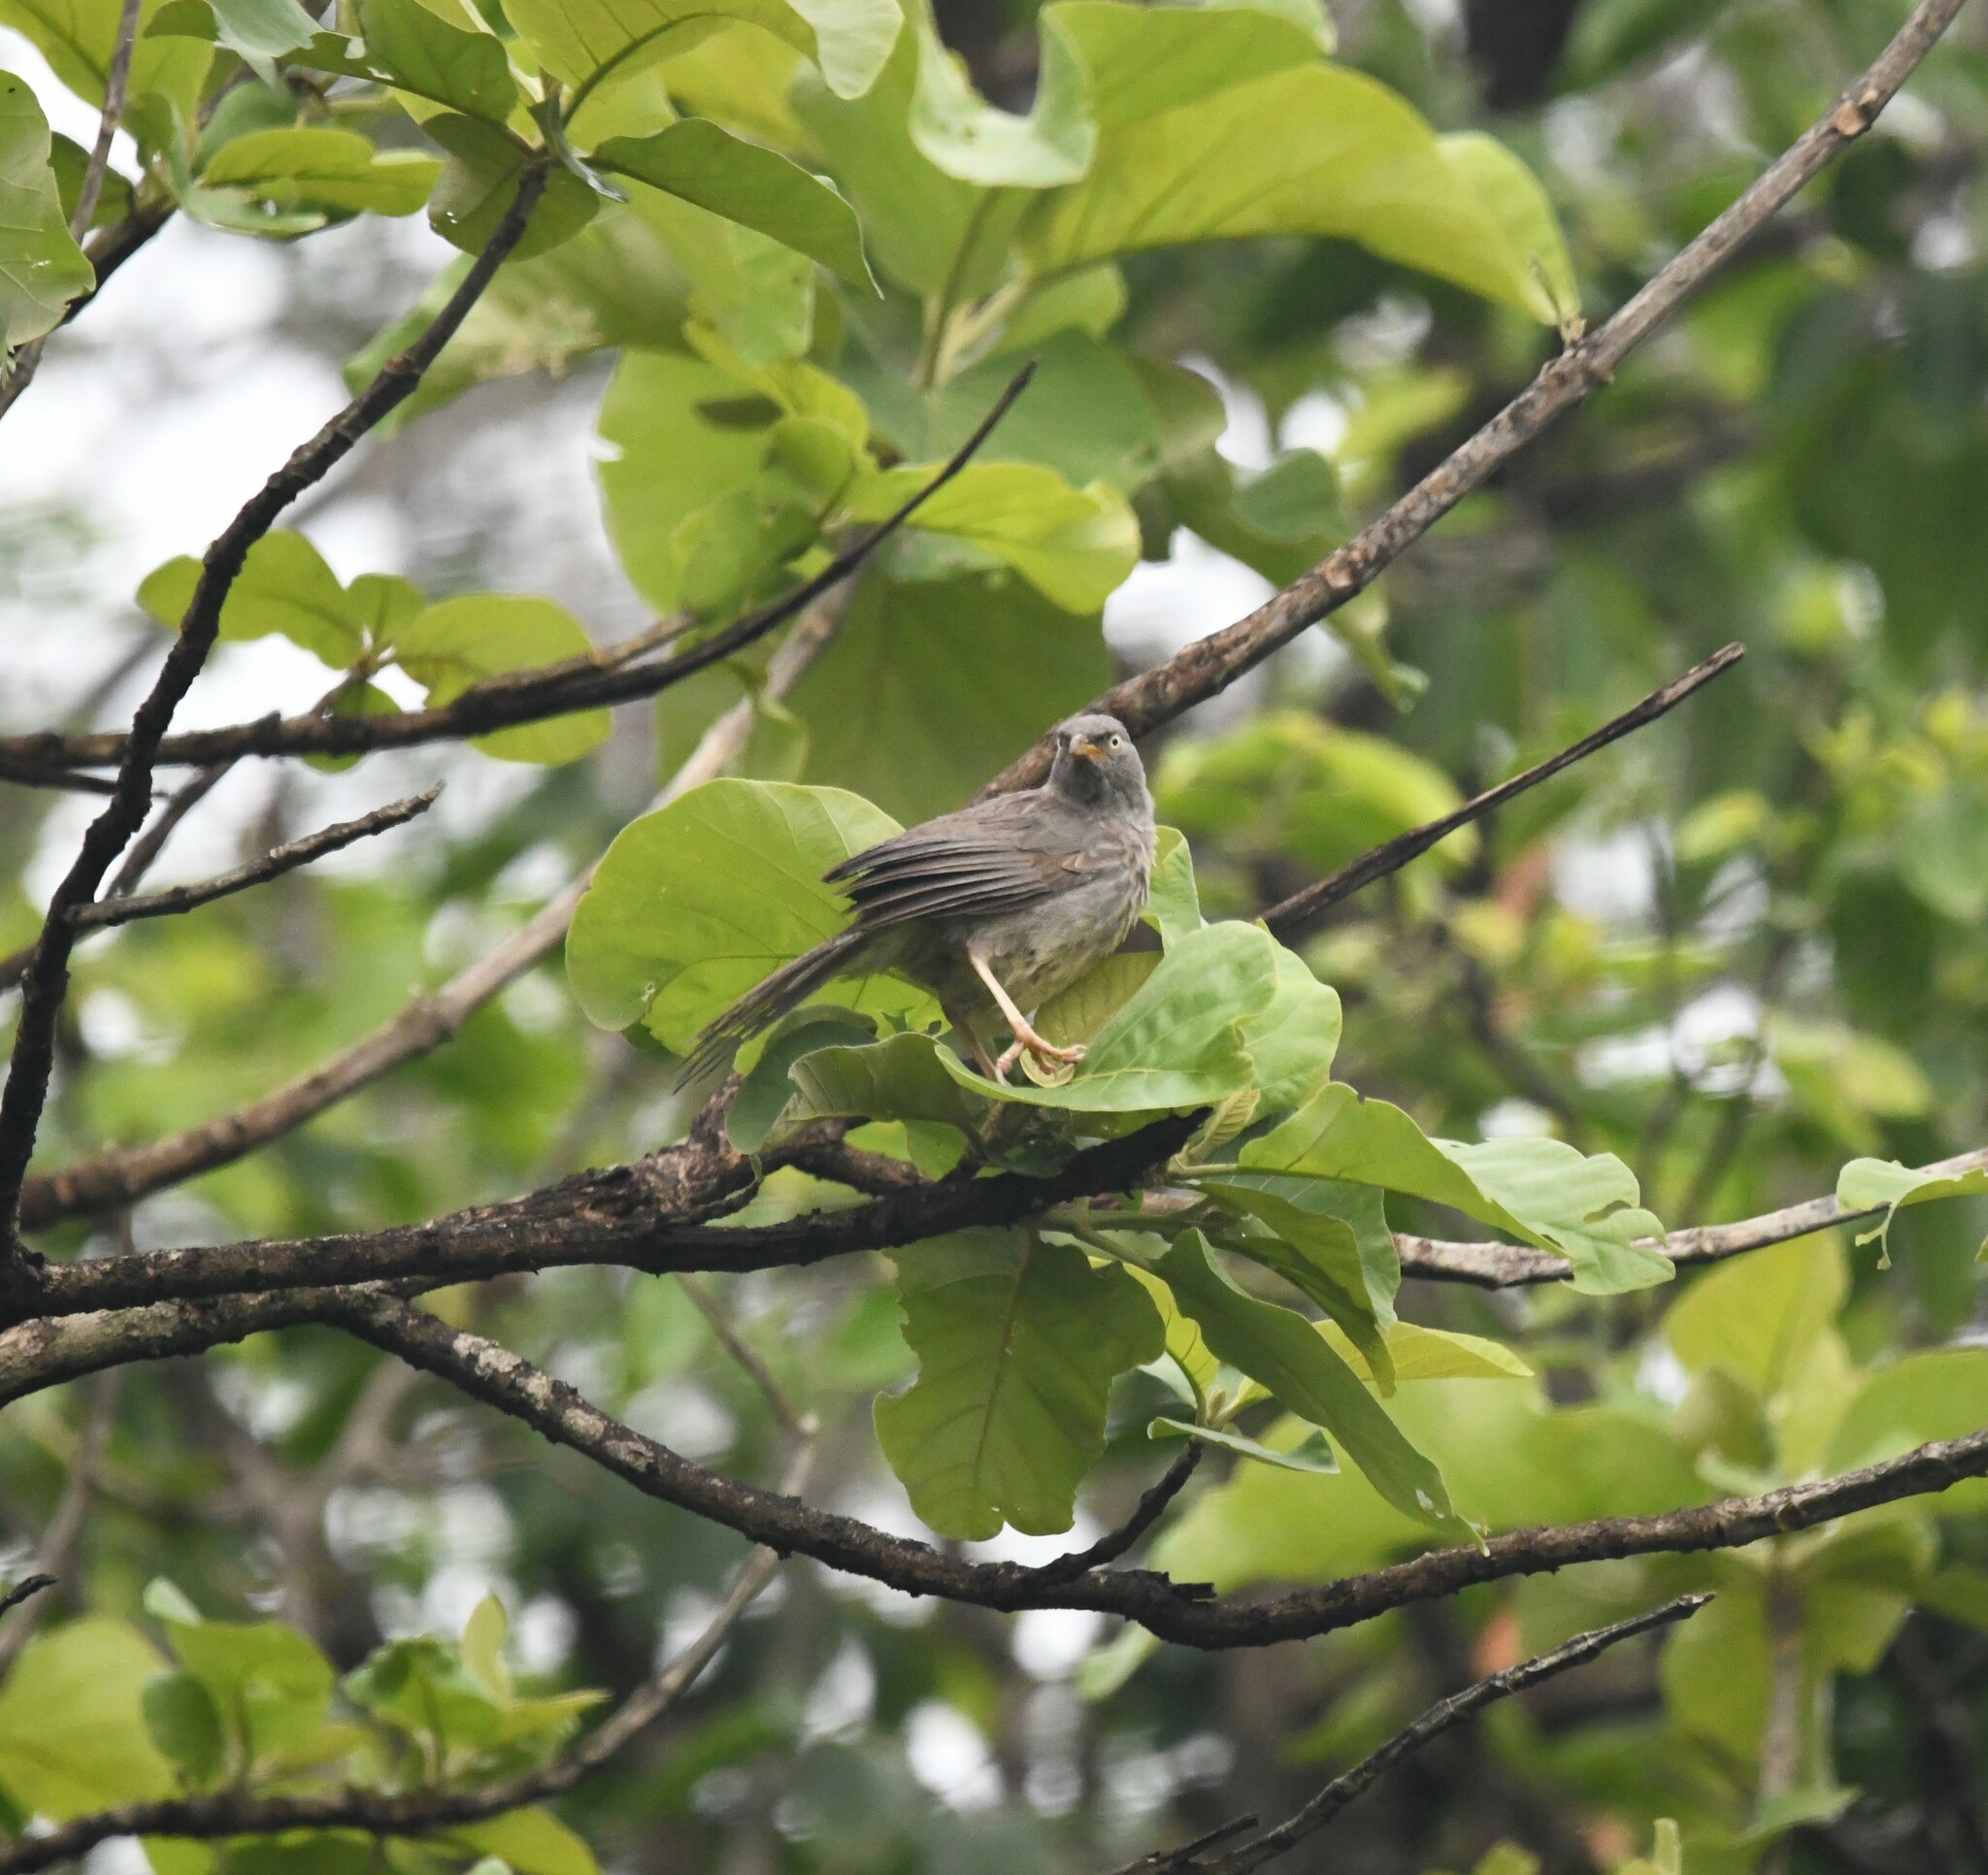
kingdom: Animalia
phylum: Chordata
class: Aves
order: Passeriformes
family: Leiothrichidae
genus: Turdoides
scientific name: Turdoides striata
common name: Jungle babbler
